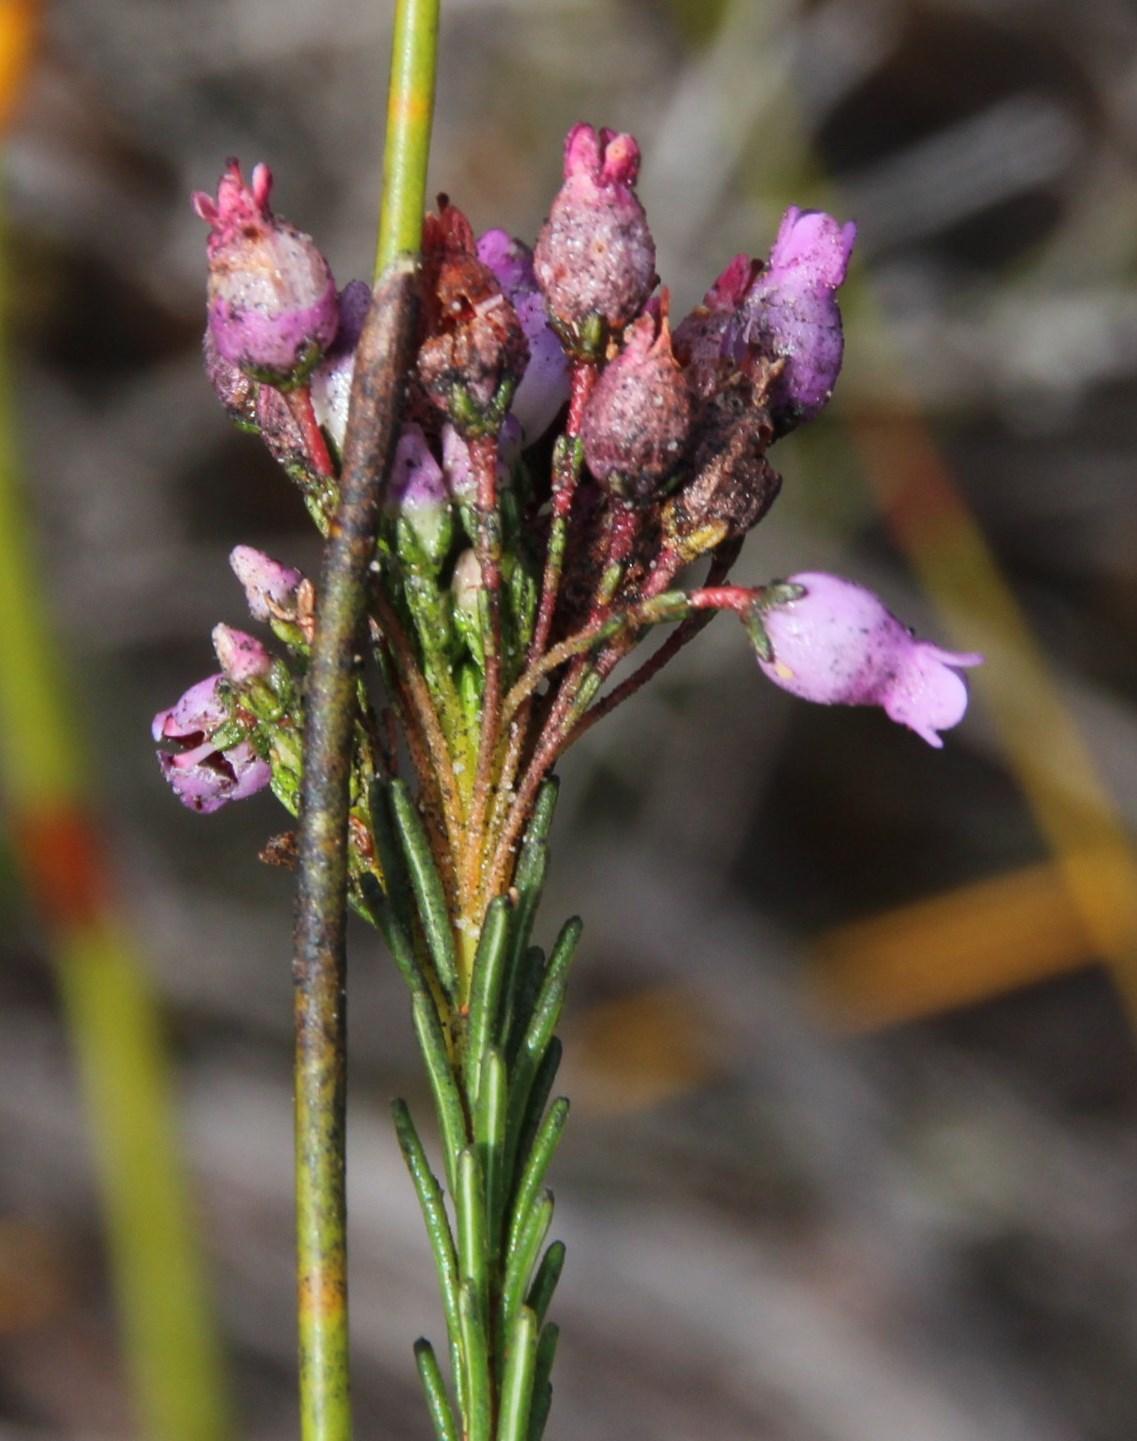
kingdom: Plantae
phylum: Tracheophyta
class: Magnoliopsida
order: Ericales
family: Ericaceae
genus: Erica
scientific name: Erica obliqua
